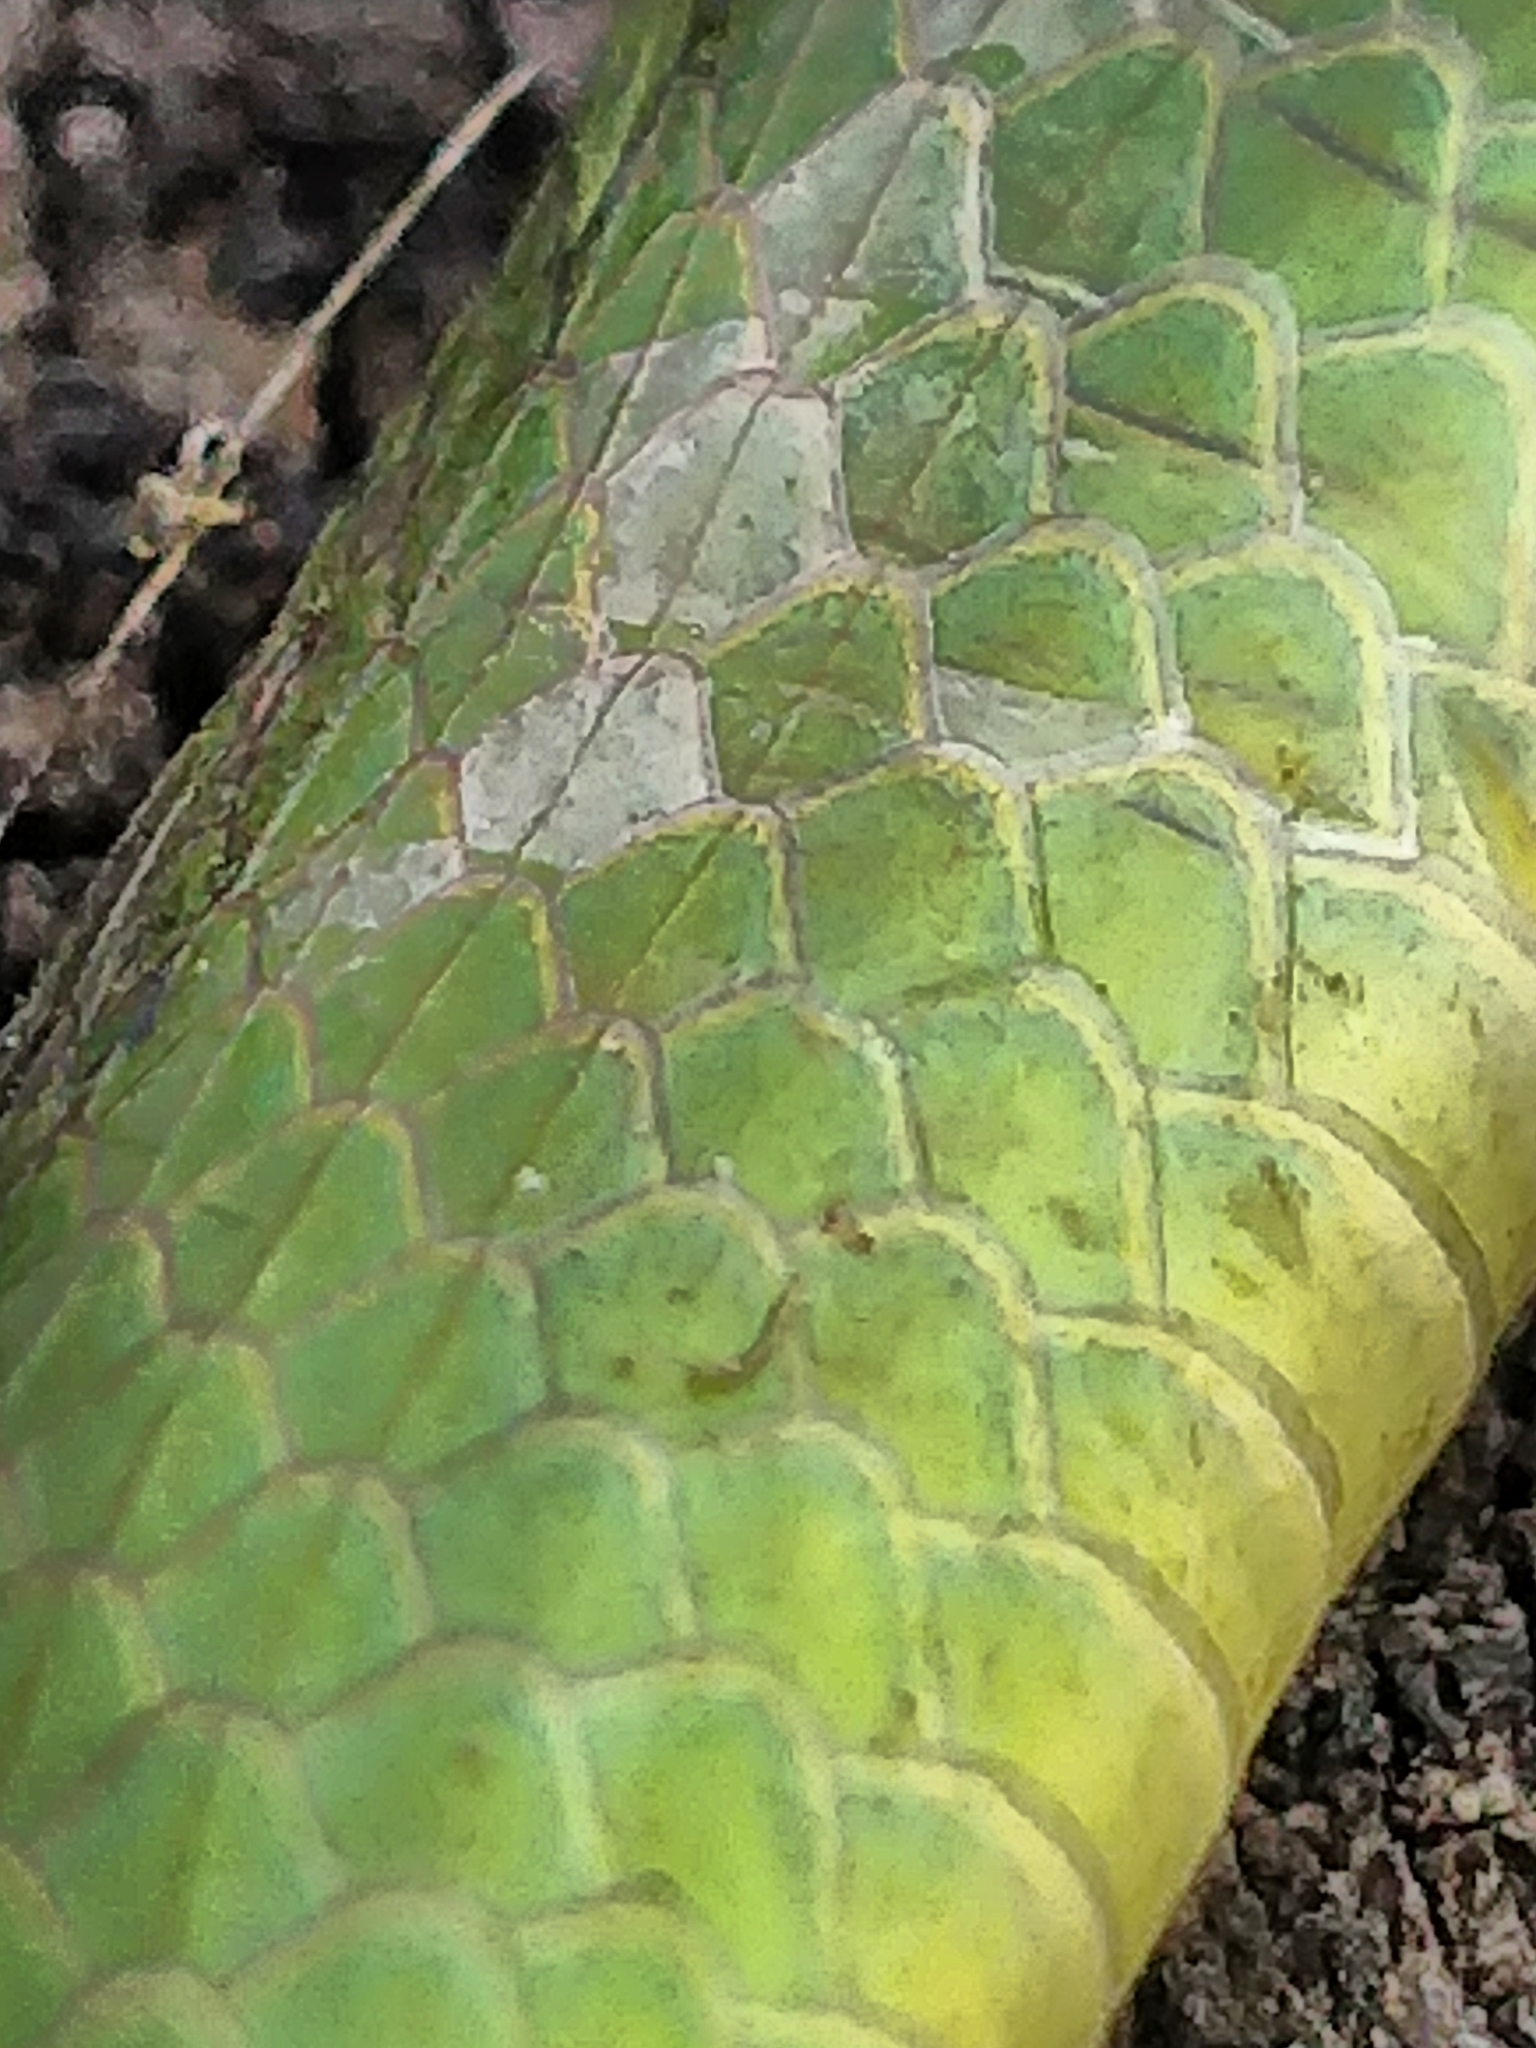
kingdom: Animalia
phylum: Chordata
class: Squamata
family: Colubridae
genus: Opheodrys
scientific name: Opheodrys aestivus
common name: Rough greensnake
